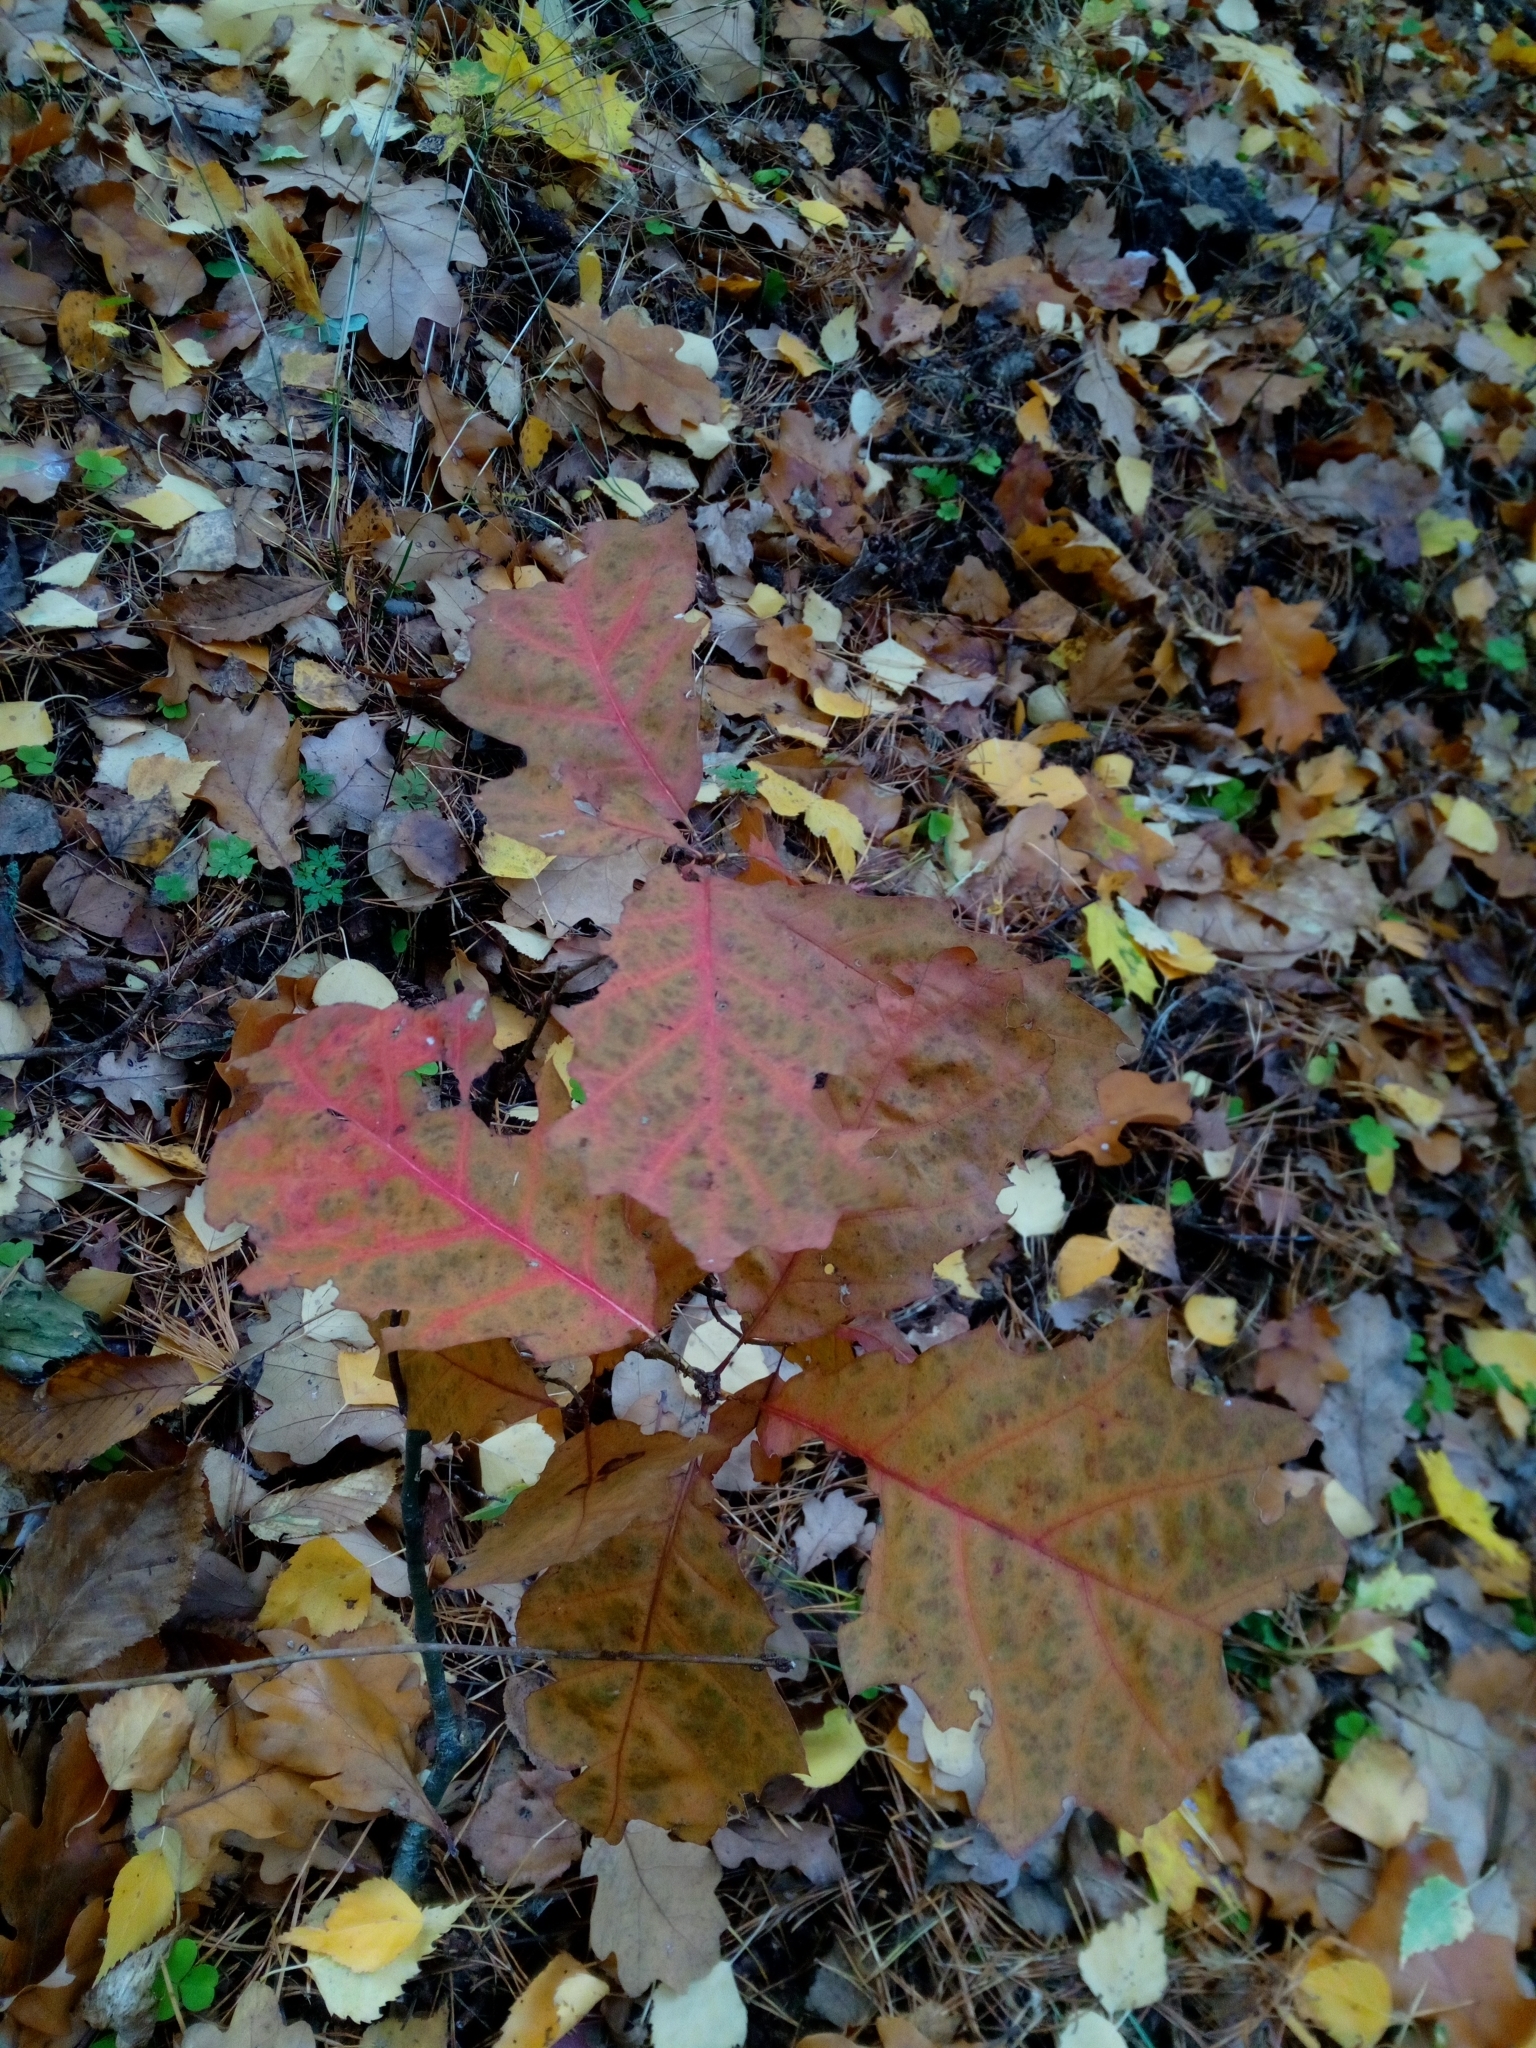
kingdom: Plantae
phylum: Tracheophyta
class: Magnoliopsida
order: Fagales
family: Fagaceae
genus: Quercus
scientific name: Quercus rubra
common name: Red oak
